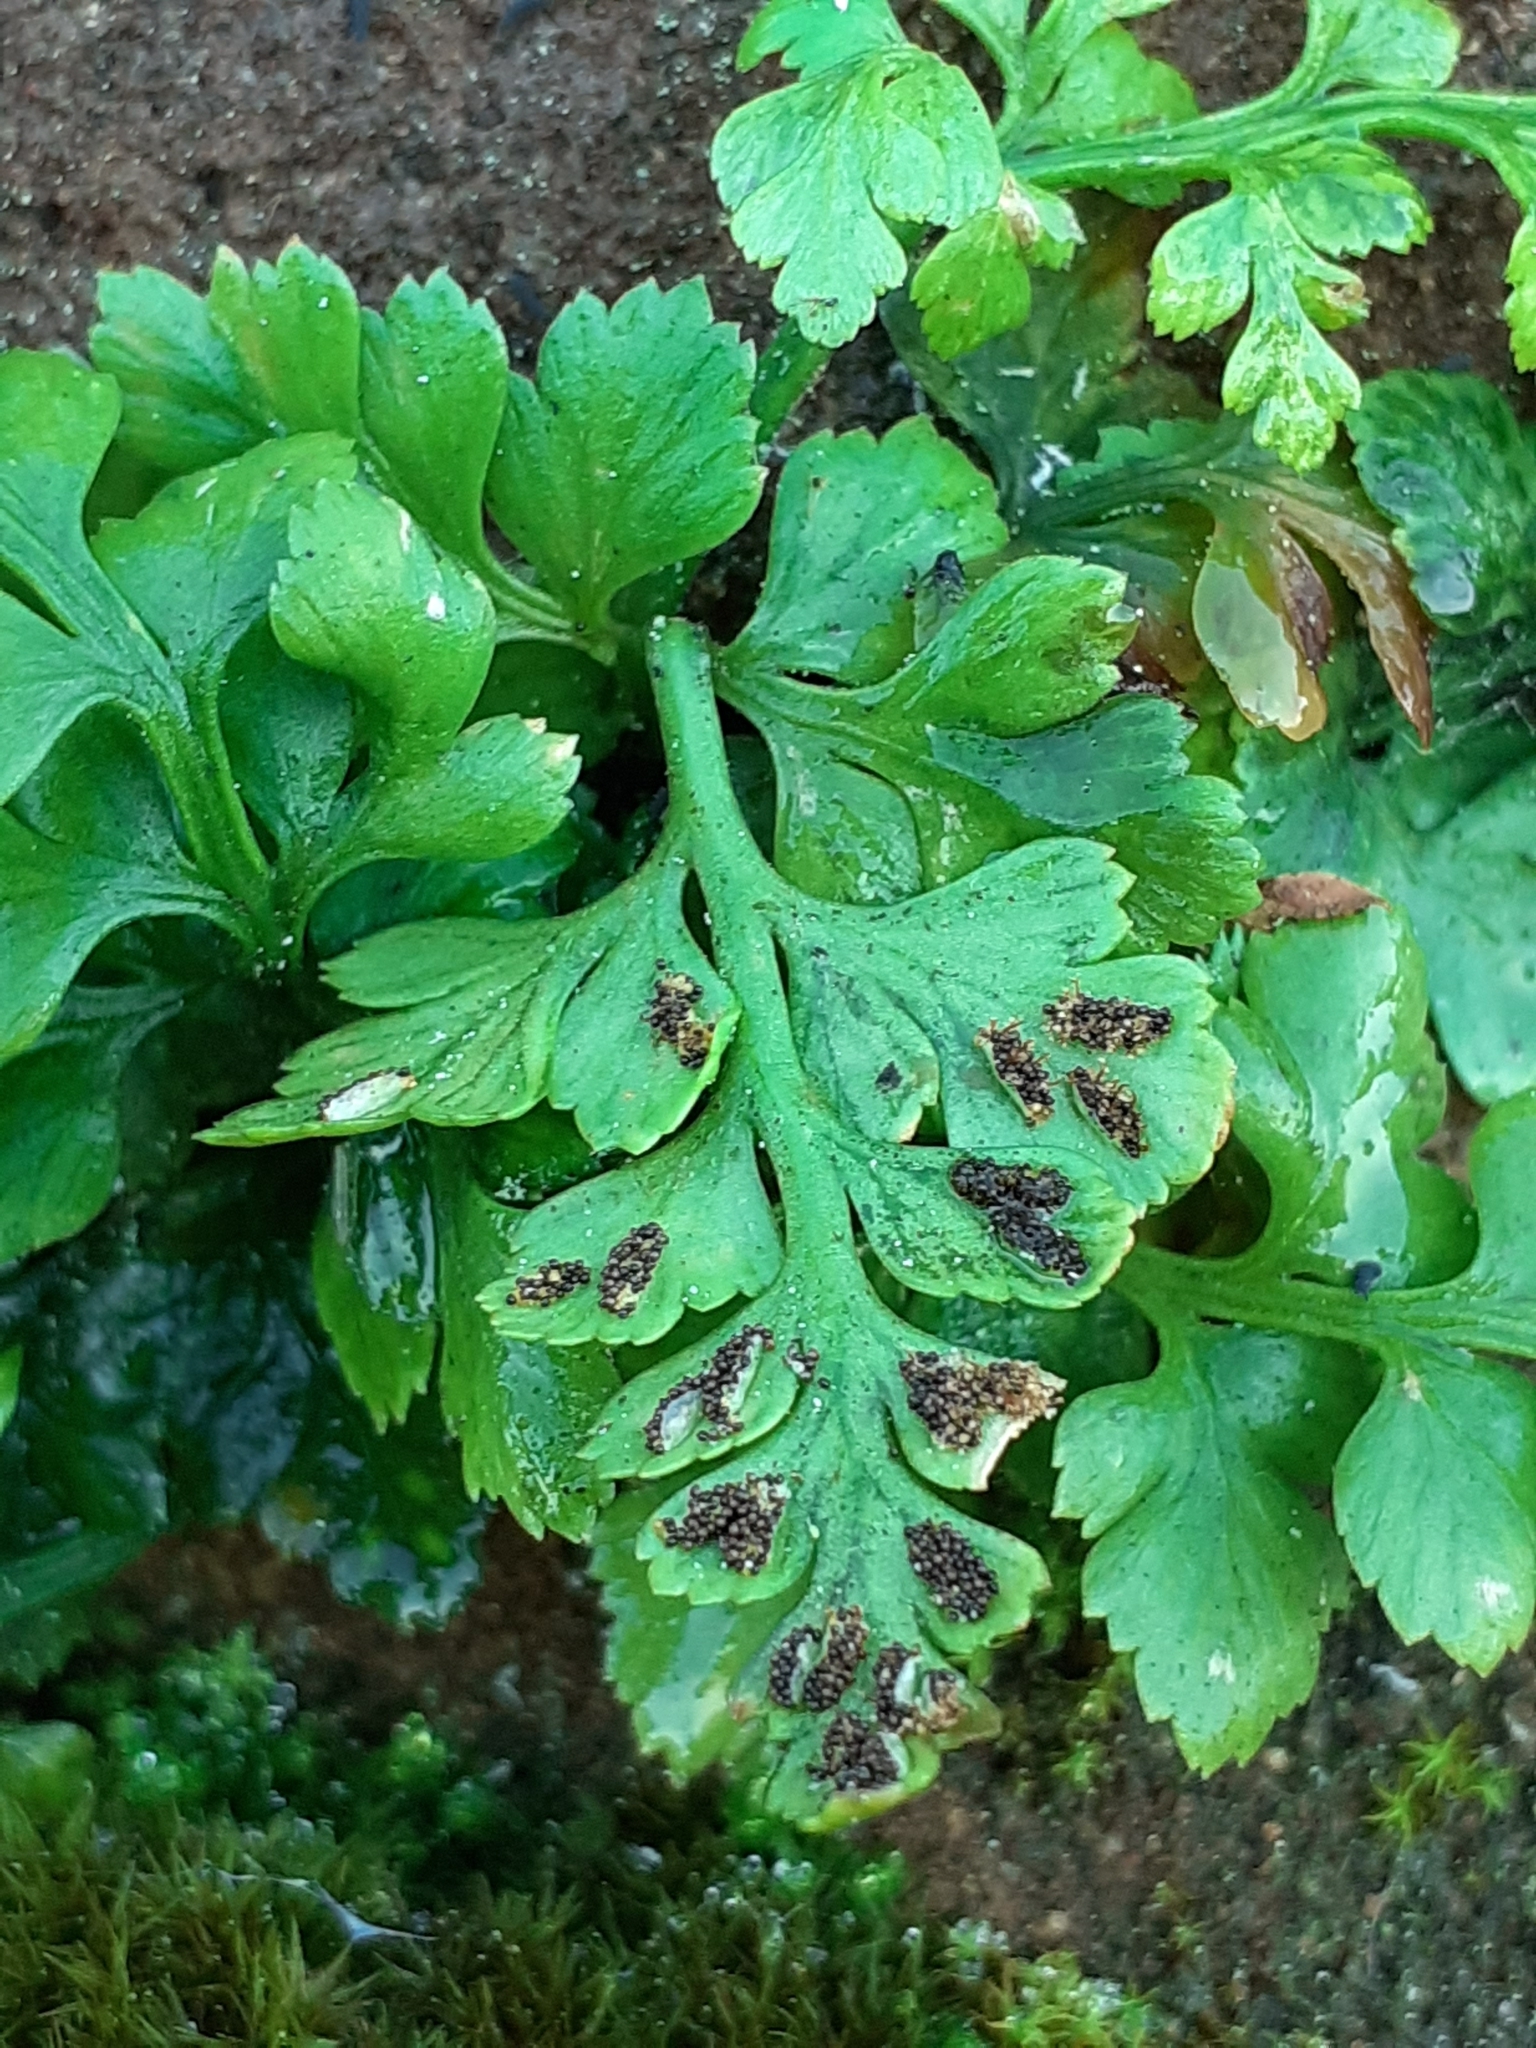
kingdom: Plantae
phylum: Tracheophyta
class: Polypodiopsida
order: Polypodiales
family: Aspleniaceae
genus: Asplenium
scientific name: Asplenium adiantum-nigrum
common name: Black spleenwort
